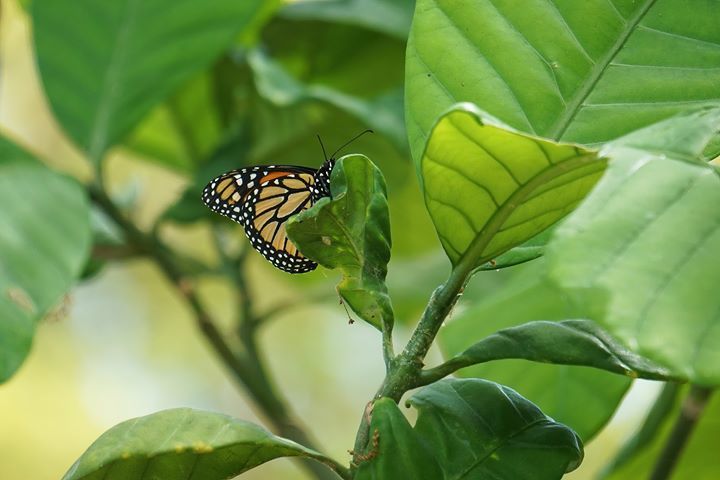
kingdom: Animalia
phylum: Arthropoda
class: Insecta
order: Lepidoptera
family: Nymphalidae
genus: Danaus
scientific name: Danaus plexippus
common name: Monarch
